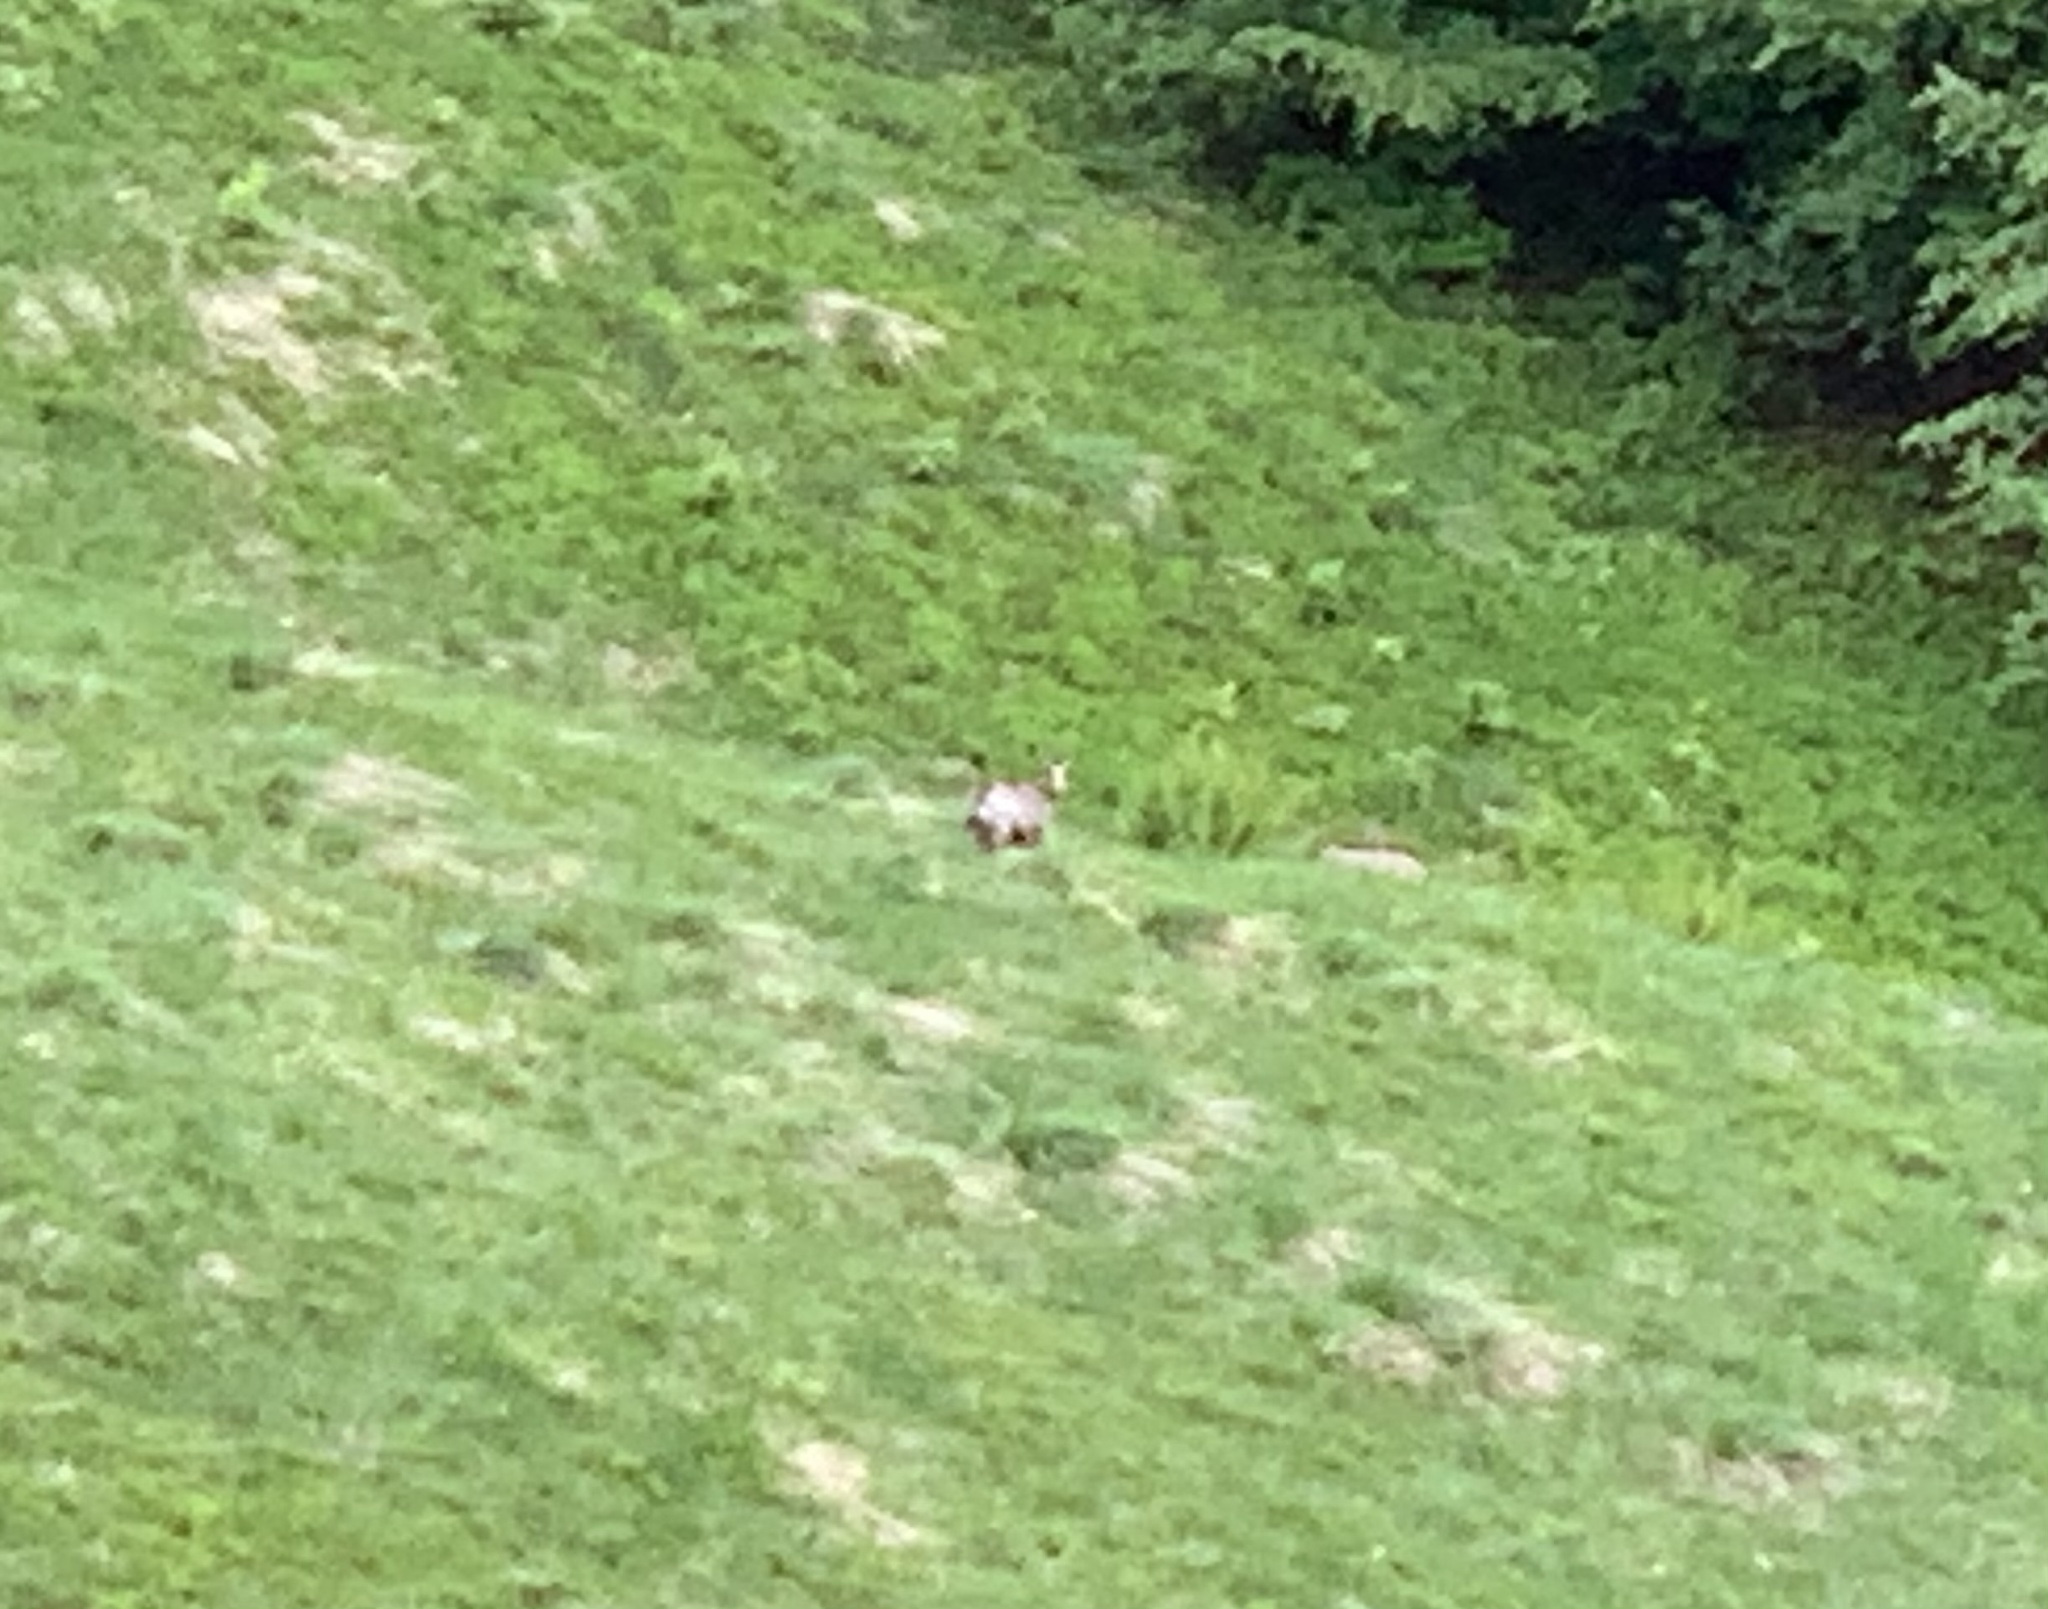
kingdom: Animalia
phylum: Chordata
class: Mammalia
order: Artiodactyla
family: Bovidae
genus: Rupicapra
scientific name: Rupicapra rupicapra
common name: Chamois
